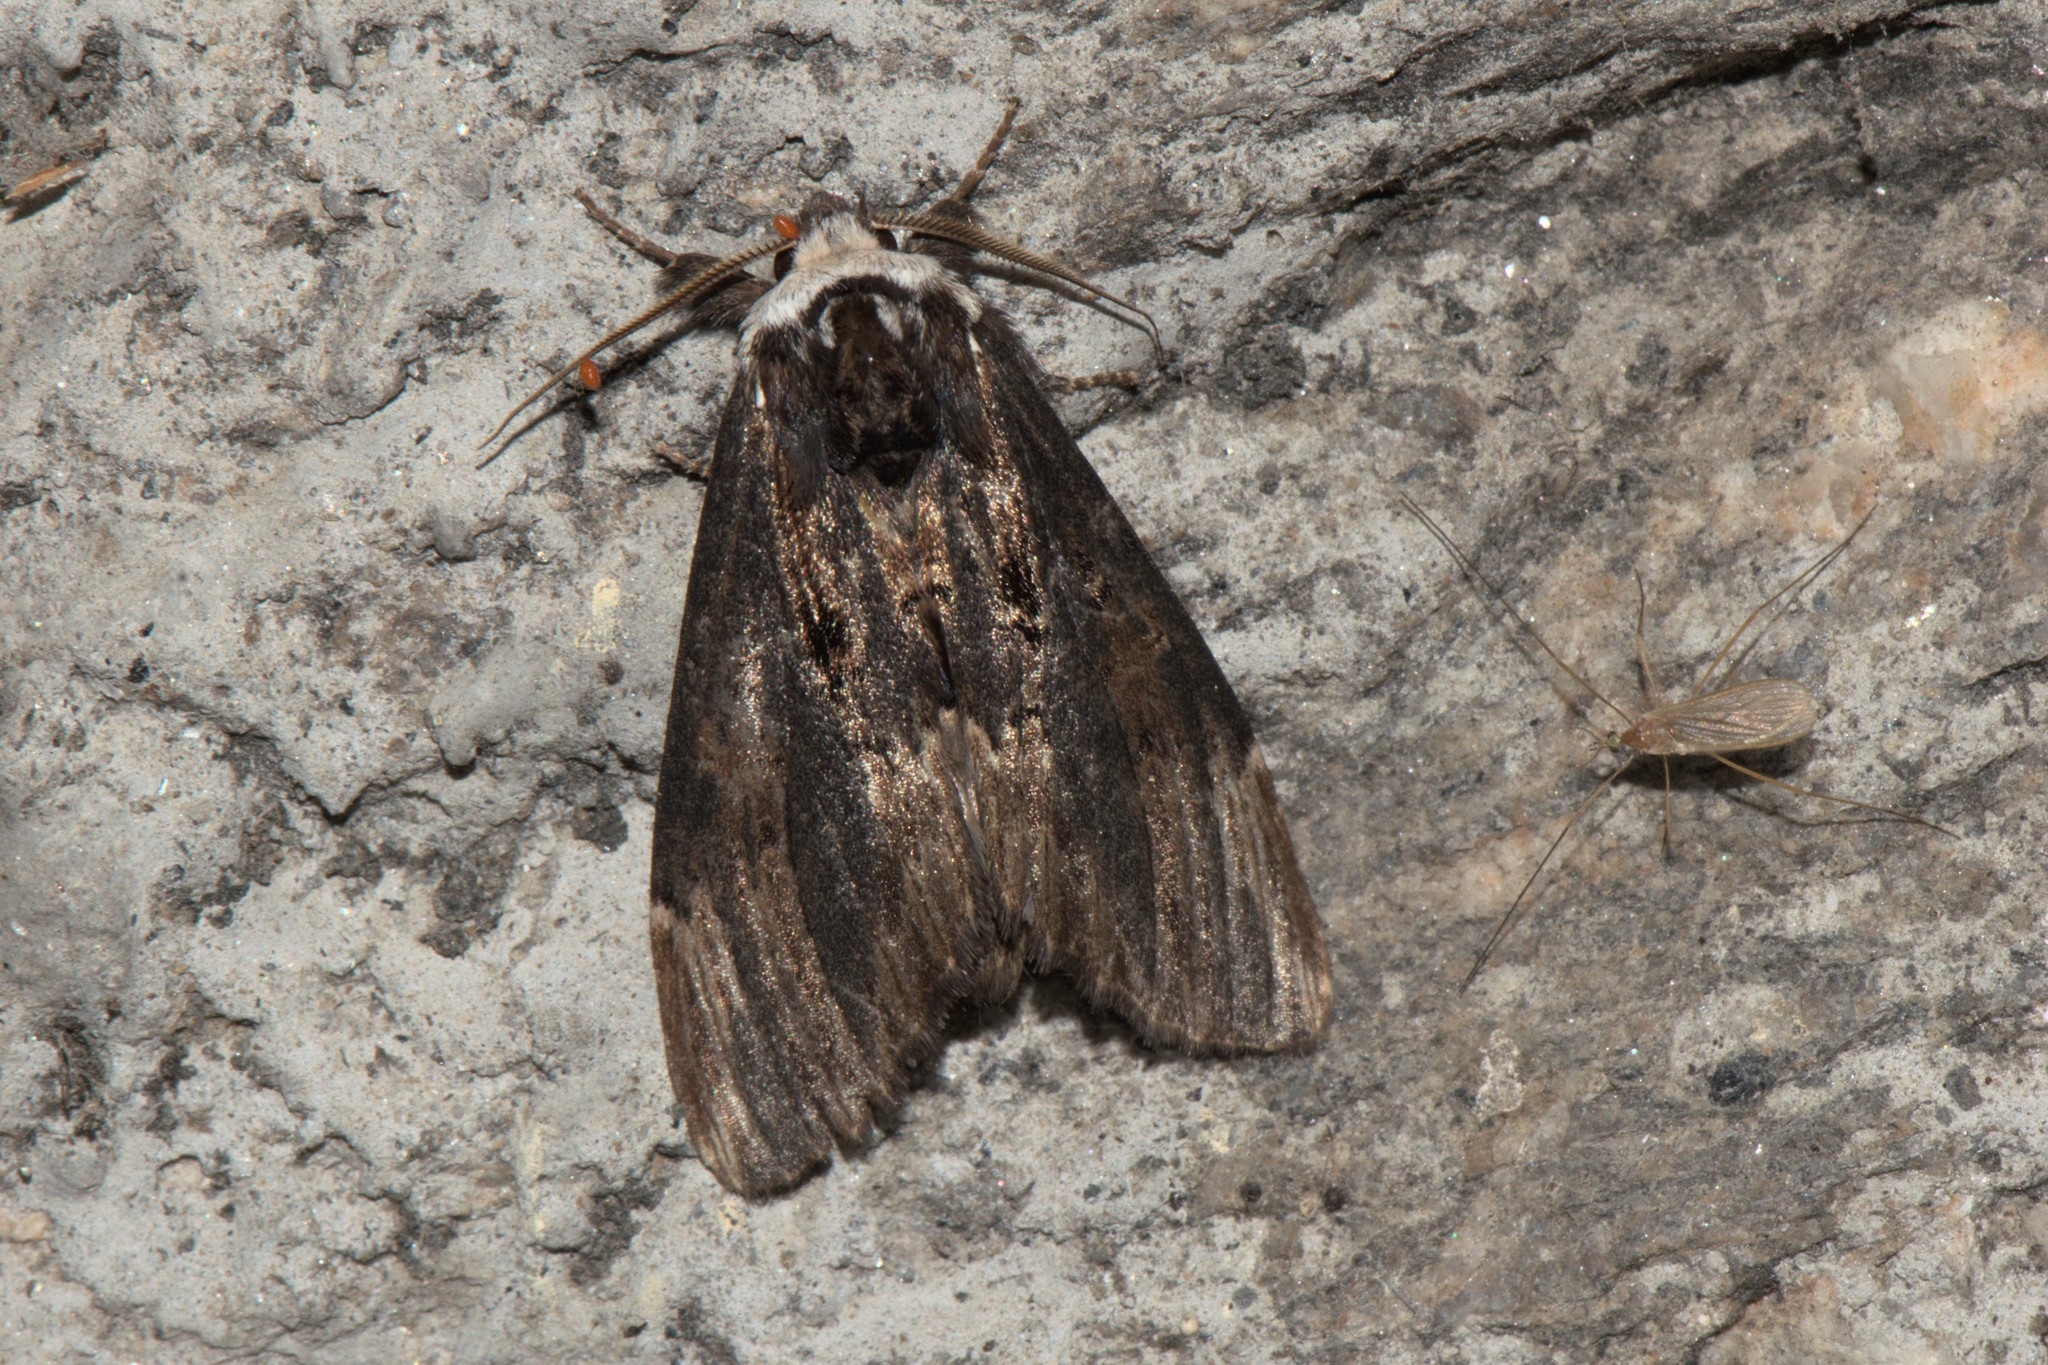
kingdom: Animalia
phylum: Arthropoda
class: Insecta
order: Lepidoptera
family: Notodontidae
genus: Allodonta
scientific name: Allodonta collaris
